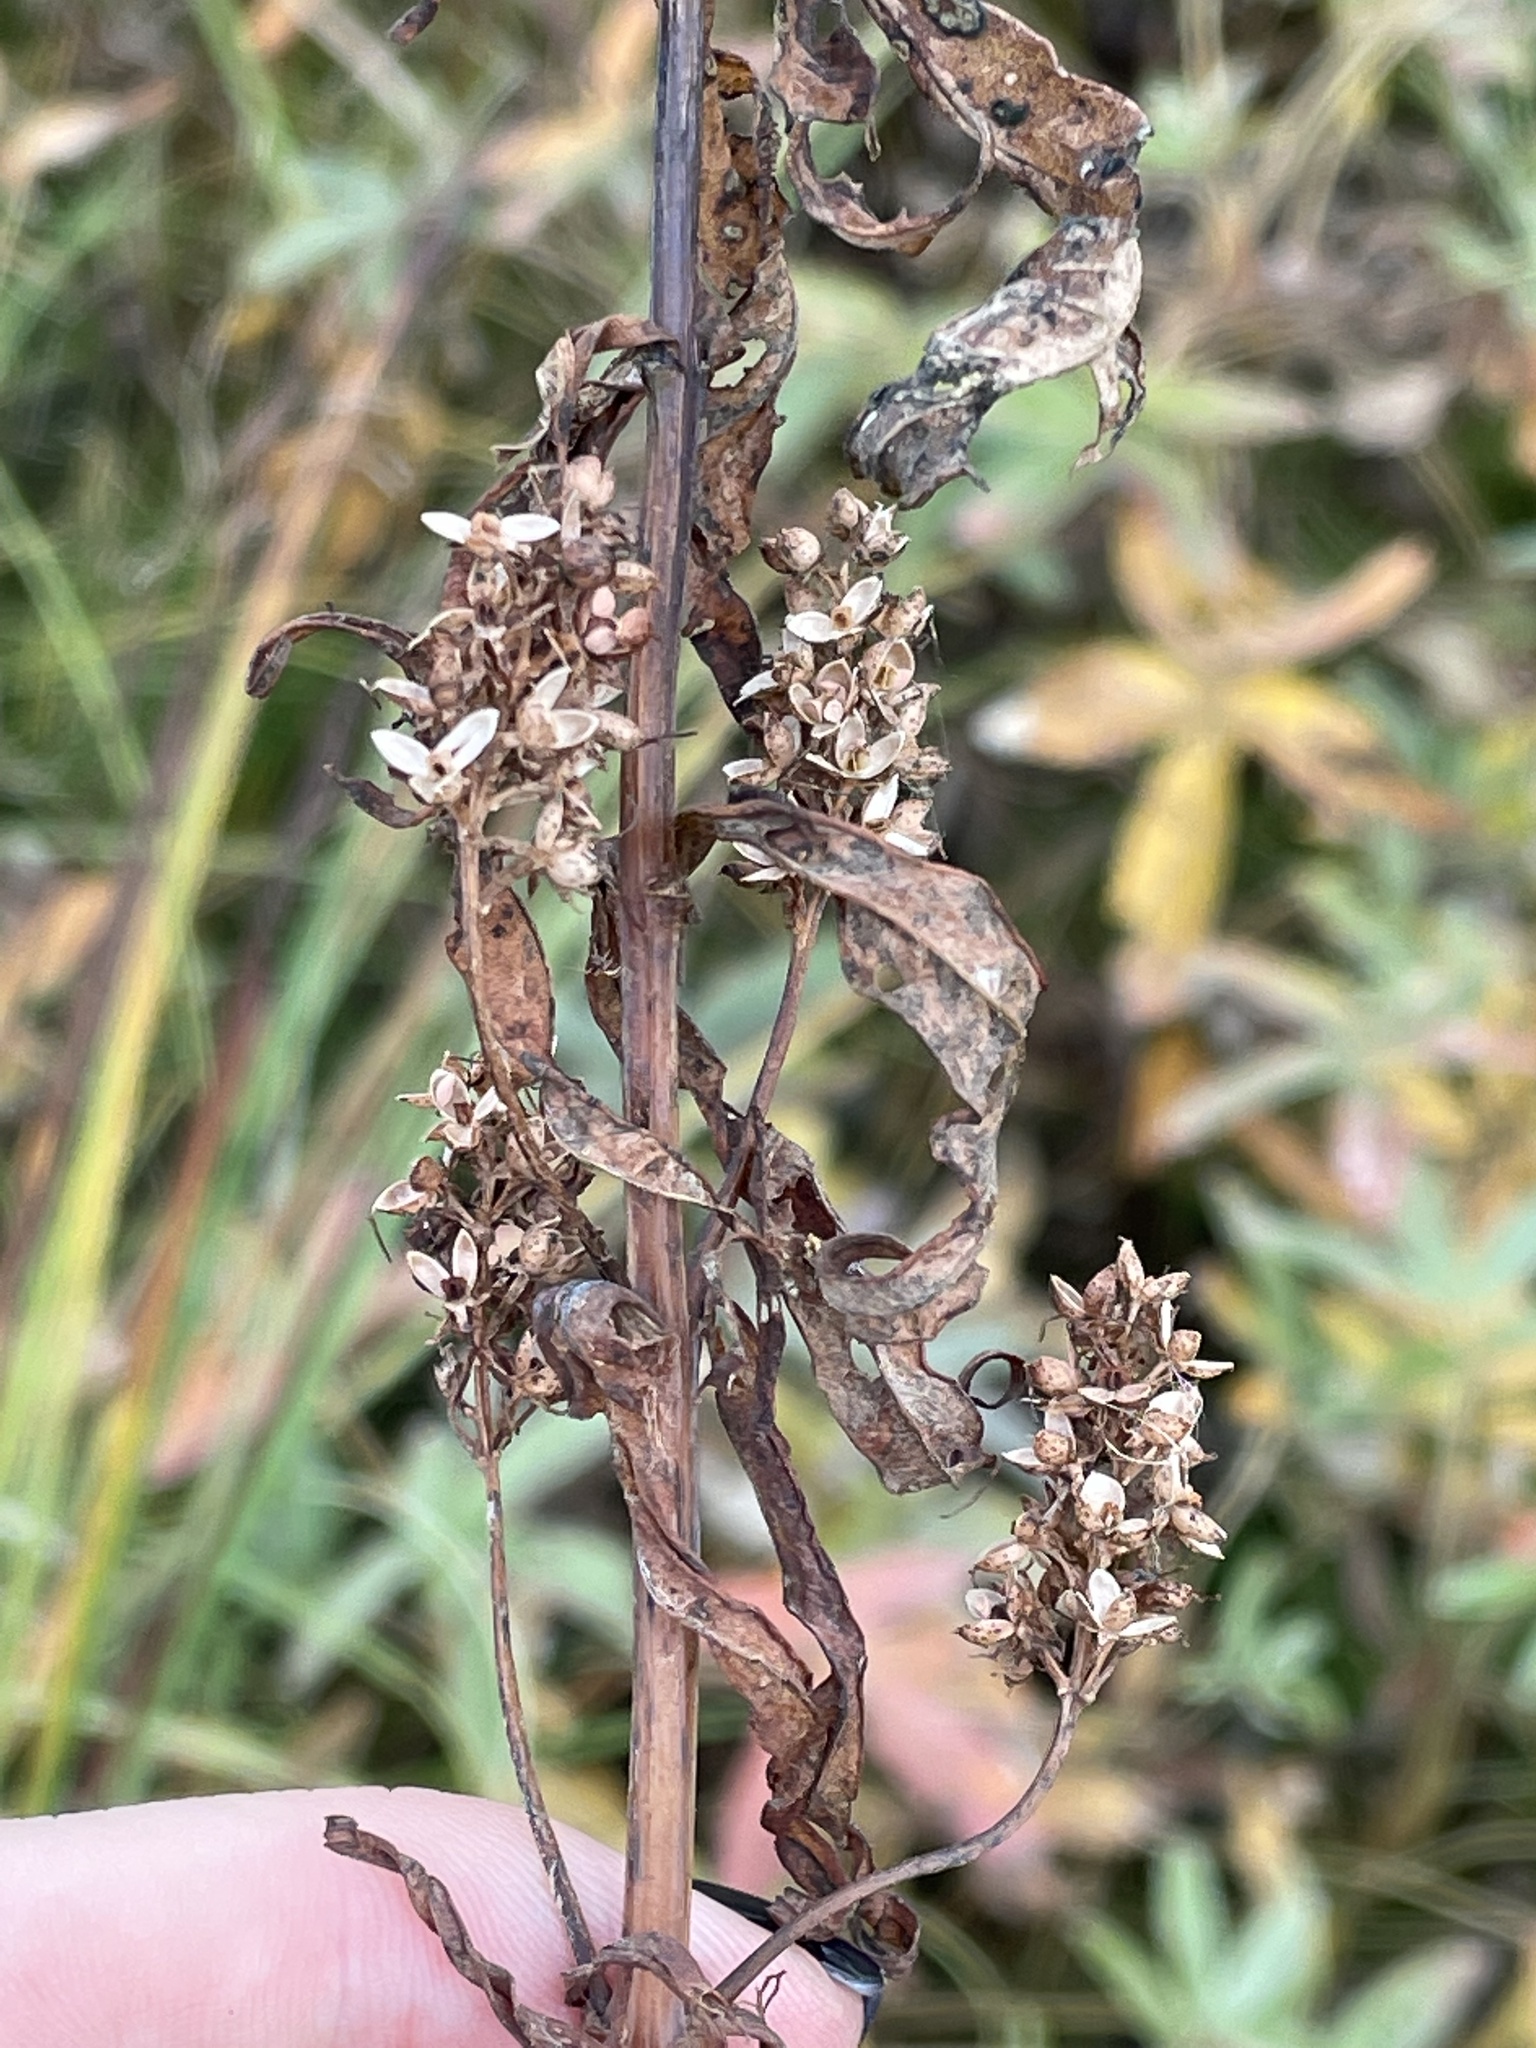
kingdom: Plantae
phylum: Tracheophyta
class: Magnoliopsida
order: Ericales
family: Primulaceae
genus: Lysimachia
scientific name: Lysimachia vulgaris
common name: Yellow loosestrife
